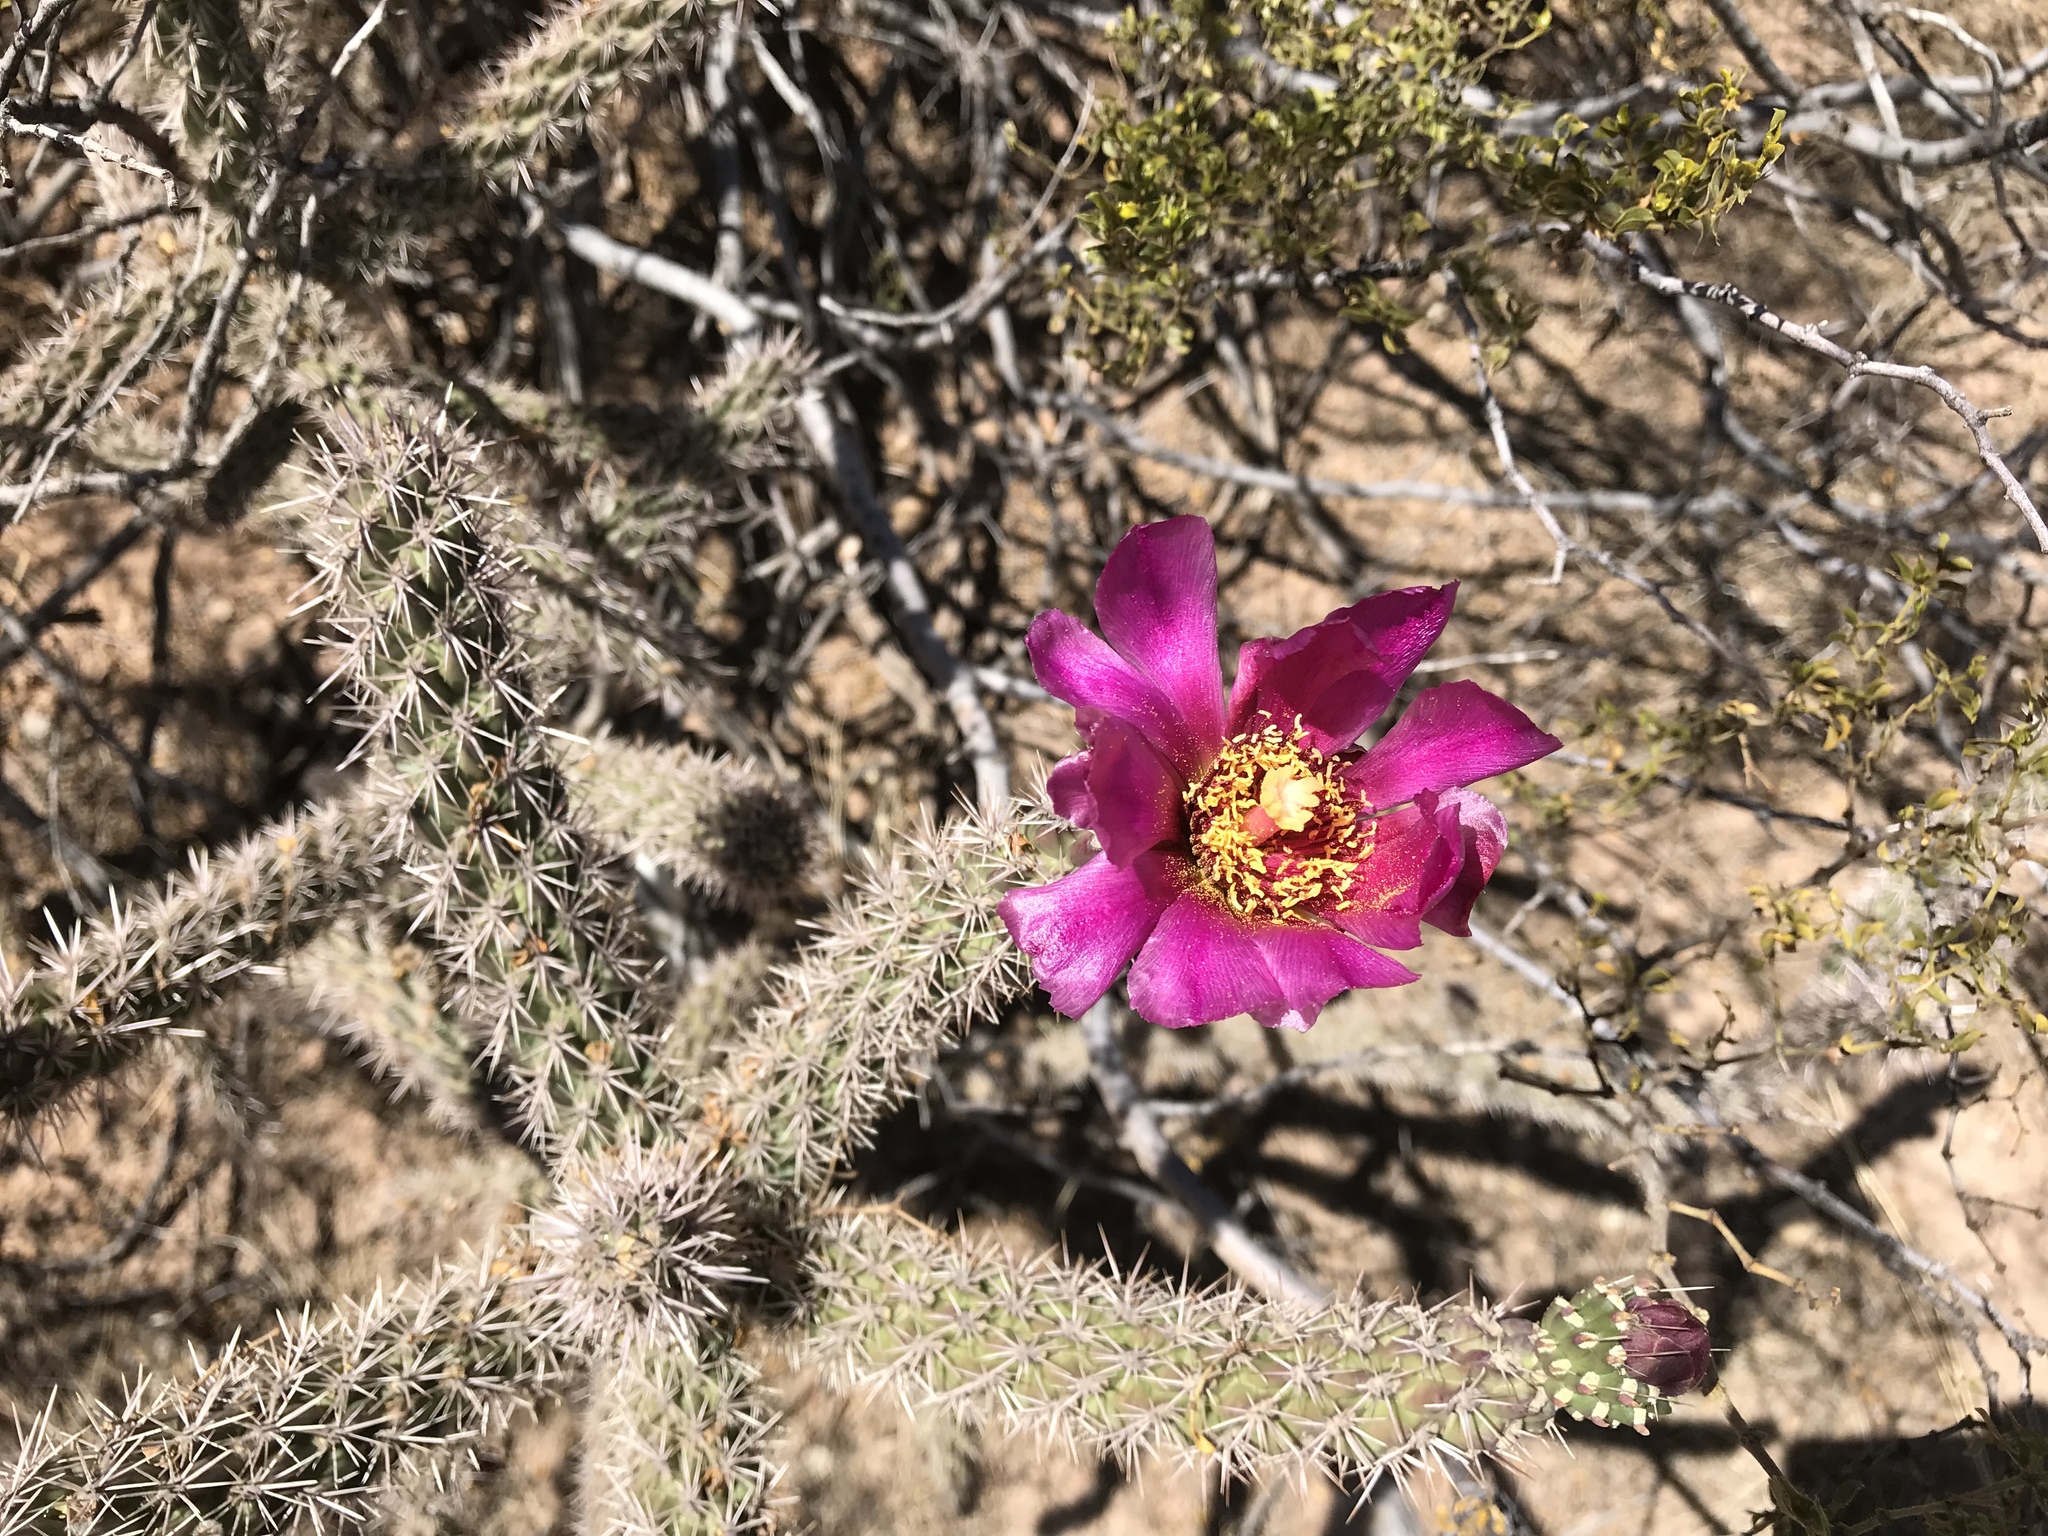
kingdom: Plantae
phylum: Tracheophyta
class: Magnoliopsida
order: Caryophyllales
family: Cactaceae
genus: Cylindropuntia
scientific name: Cylindropuntia imbricata
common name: Candelabrum cactus
